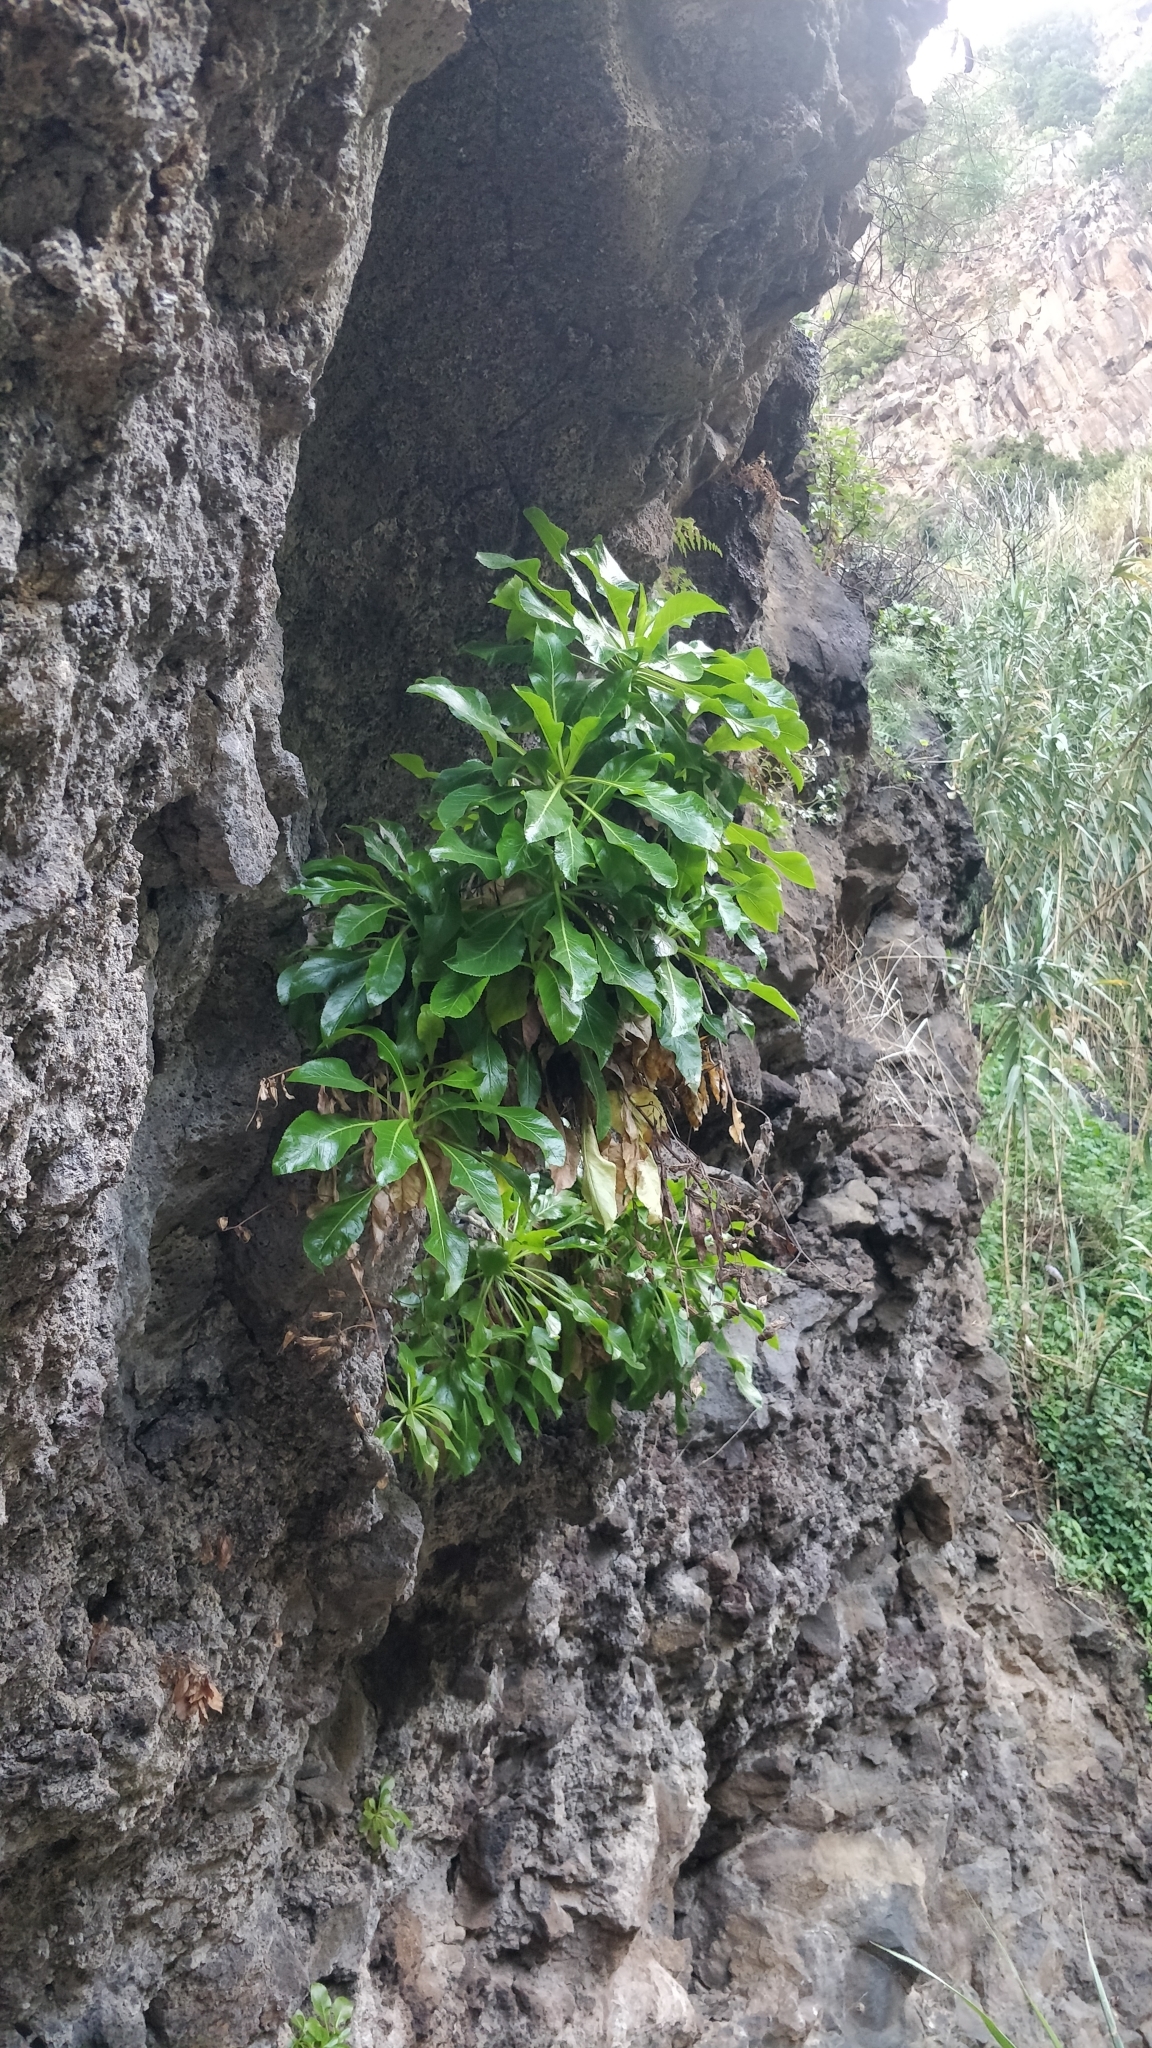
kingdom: Plantae
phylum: Tracheophyta
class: Magnoliopsida
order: Asterales
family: Campanulaceae
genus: Musschia
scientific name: Musschia aurea
